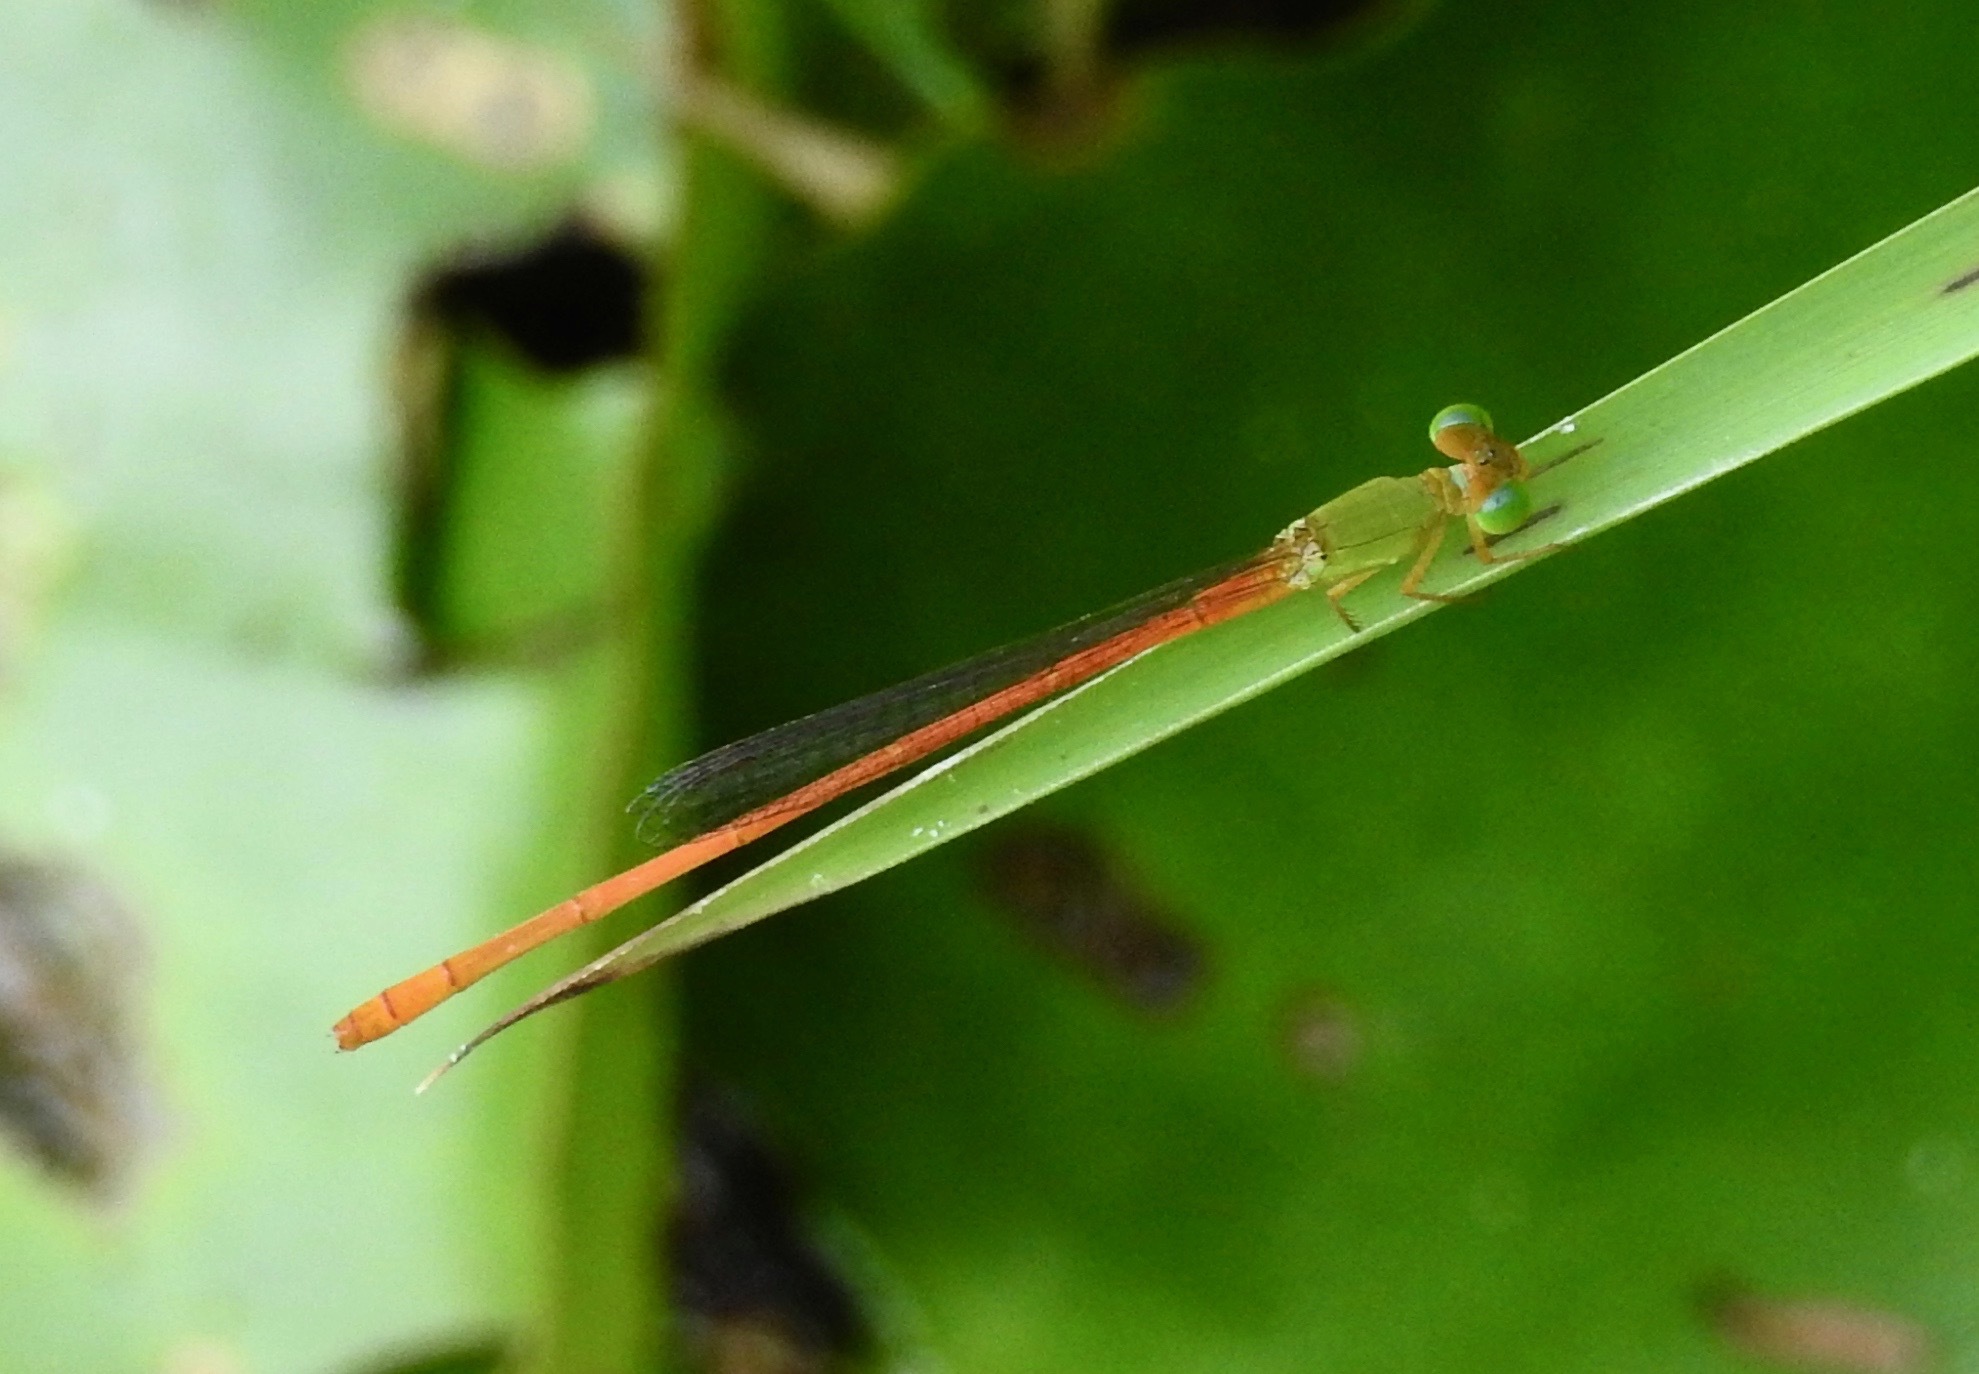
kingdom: Animalia
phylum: Arthropoda
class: Insecta
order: Odonata
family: Coenagrionidae
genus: Ceriagrion
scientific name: Ceriagrion auranticum
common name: Orange-tailed sprite
